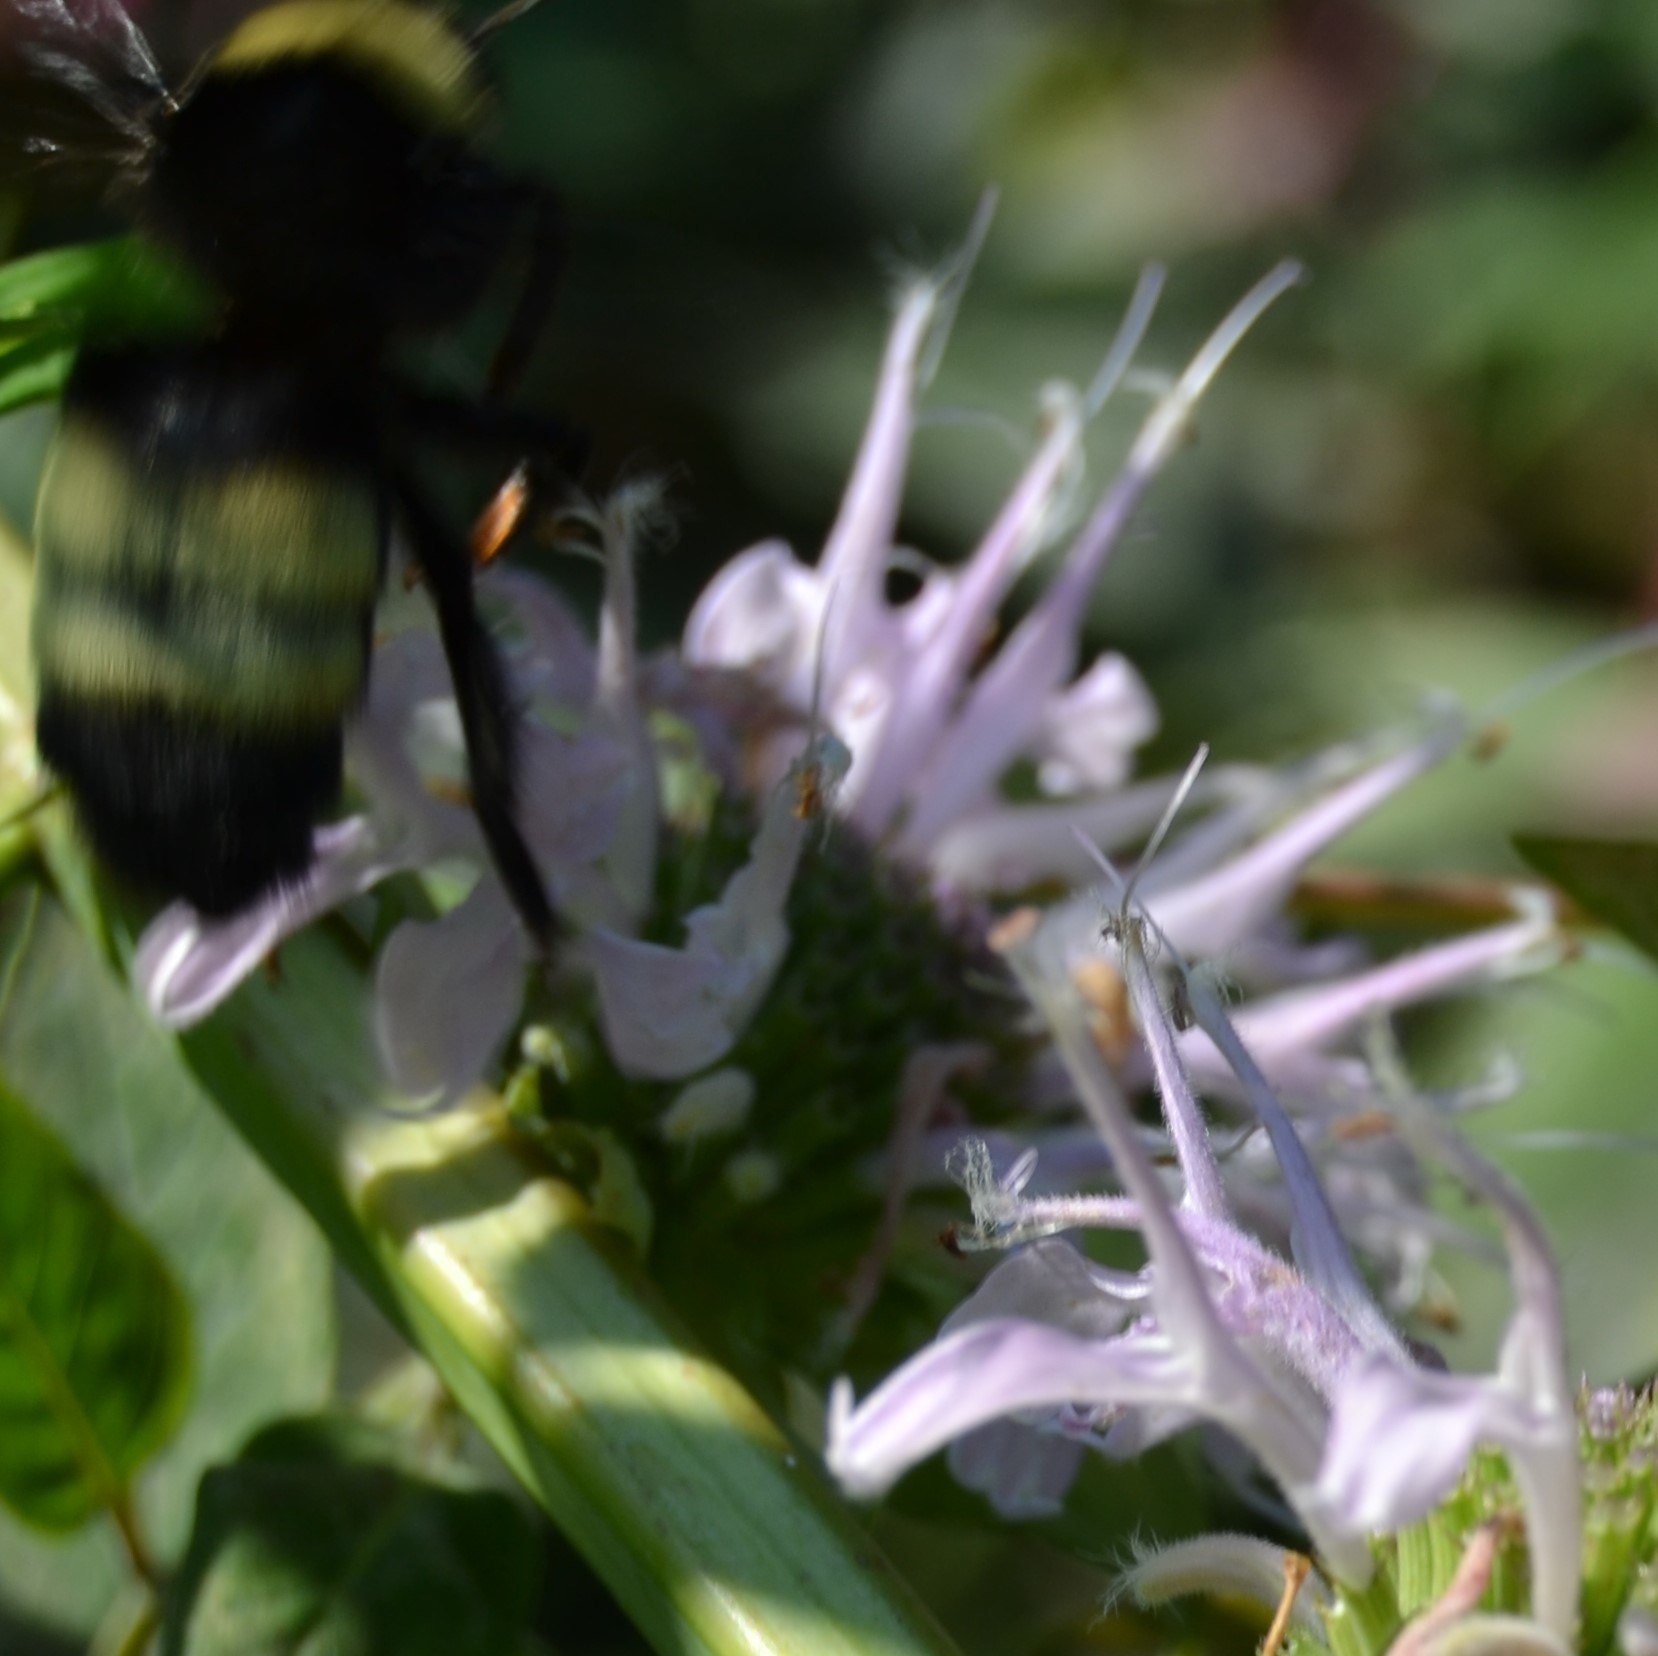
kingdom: Animalia
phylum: Arthropoda
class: Insecta
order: Hymenoptera
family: Apidae
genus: Bombus
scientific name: Bombus auricomus
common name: Black and gold bumble bee
